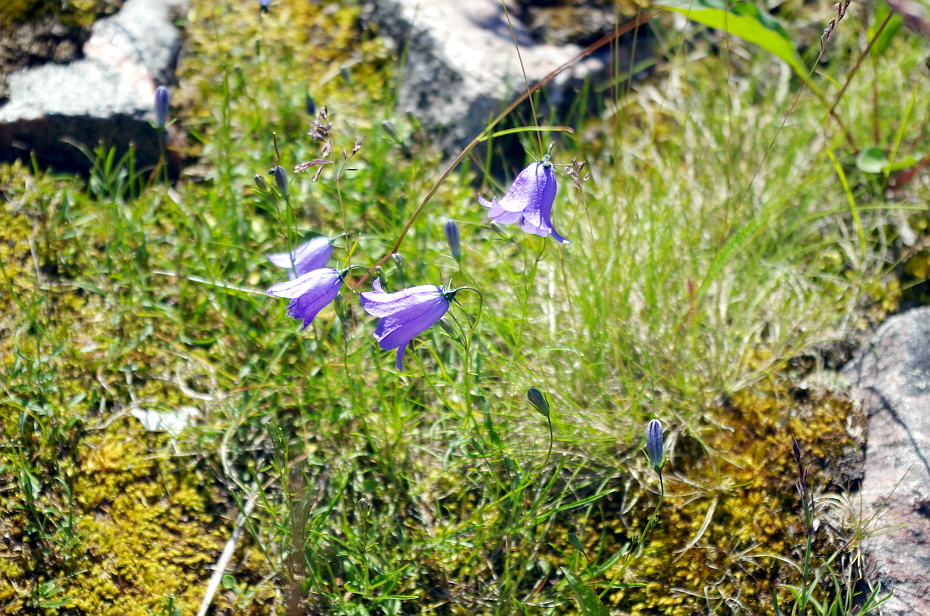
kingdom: Plantae
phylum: Tracheophyta
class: Magnoliopsida
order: Asterales
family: Campanulaceae
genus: Campanula
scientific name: Campanula rotundifolia
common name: Harebell
